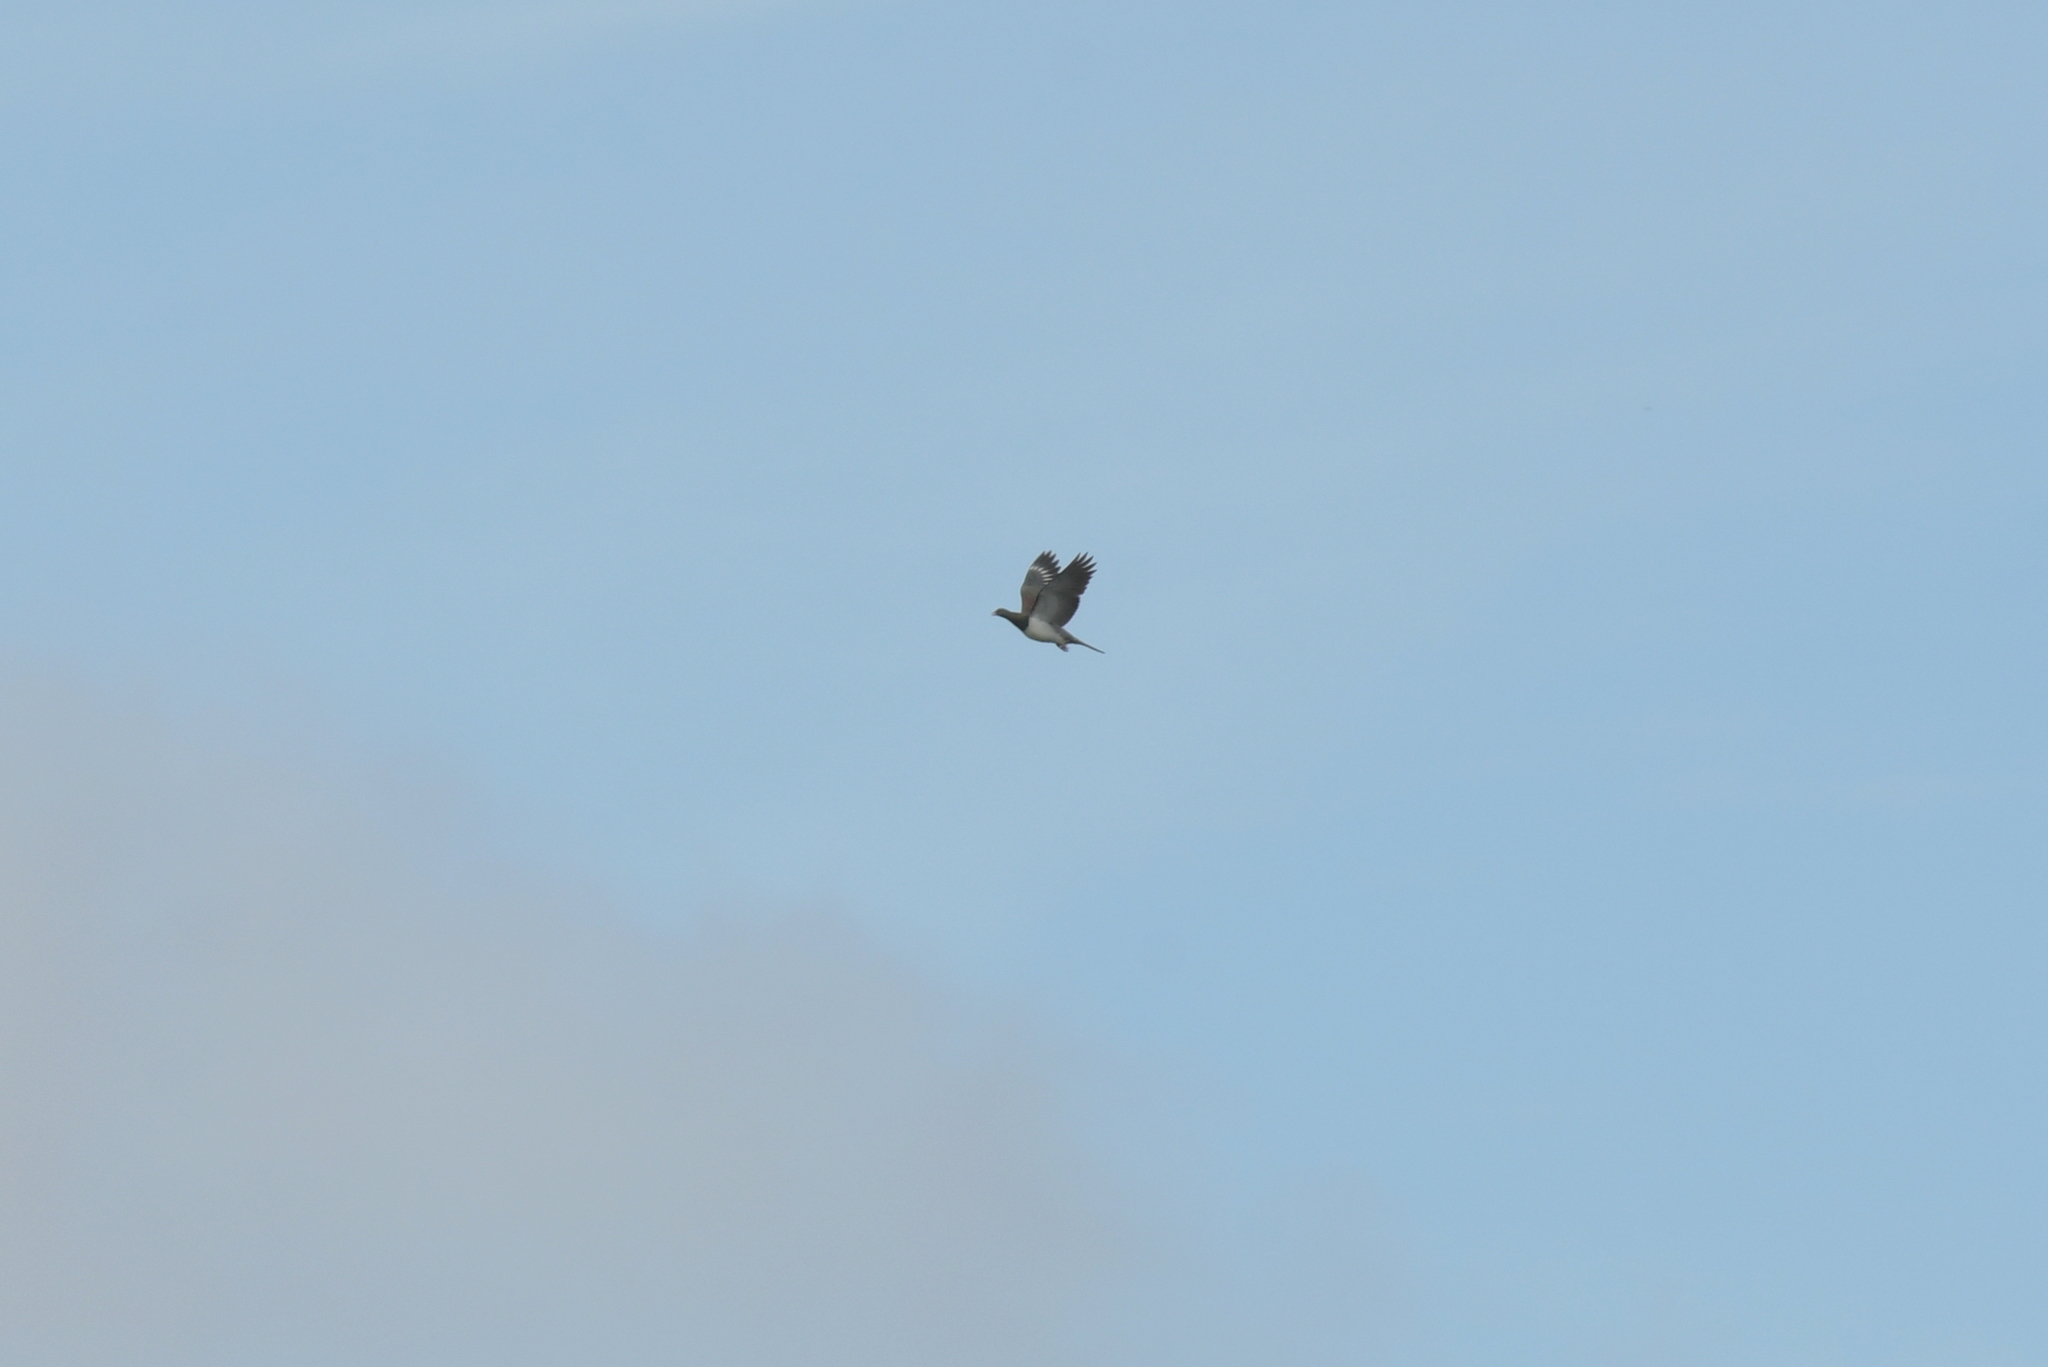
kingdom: Animalia
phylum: Chordata
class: Aves
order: Columbiformes
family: Columbidae
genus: Hemiphaga
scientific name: Hemiphaga novaeseelandiae
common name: New zealand pigeon
